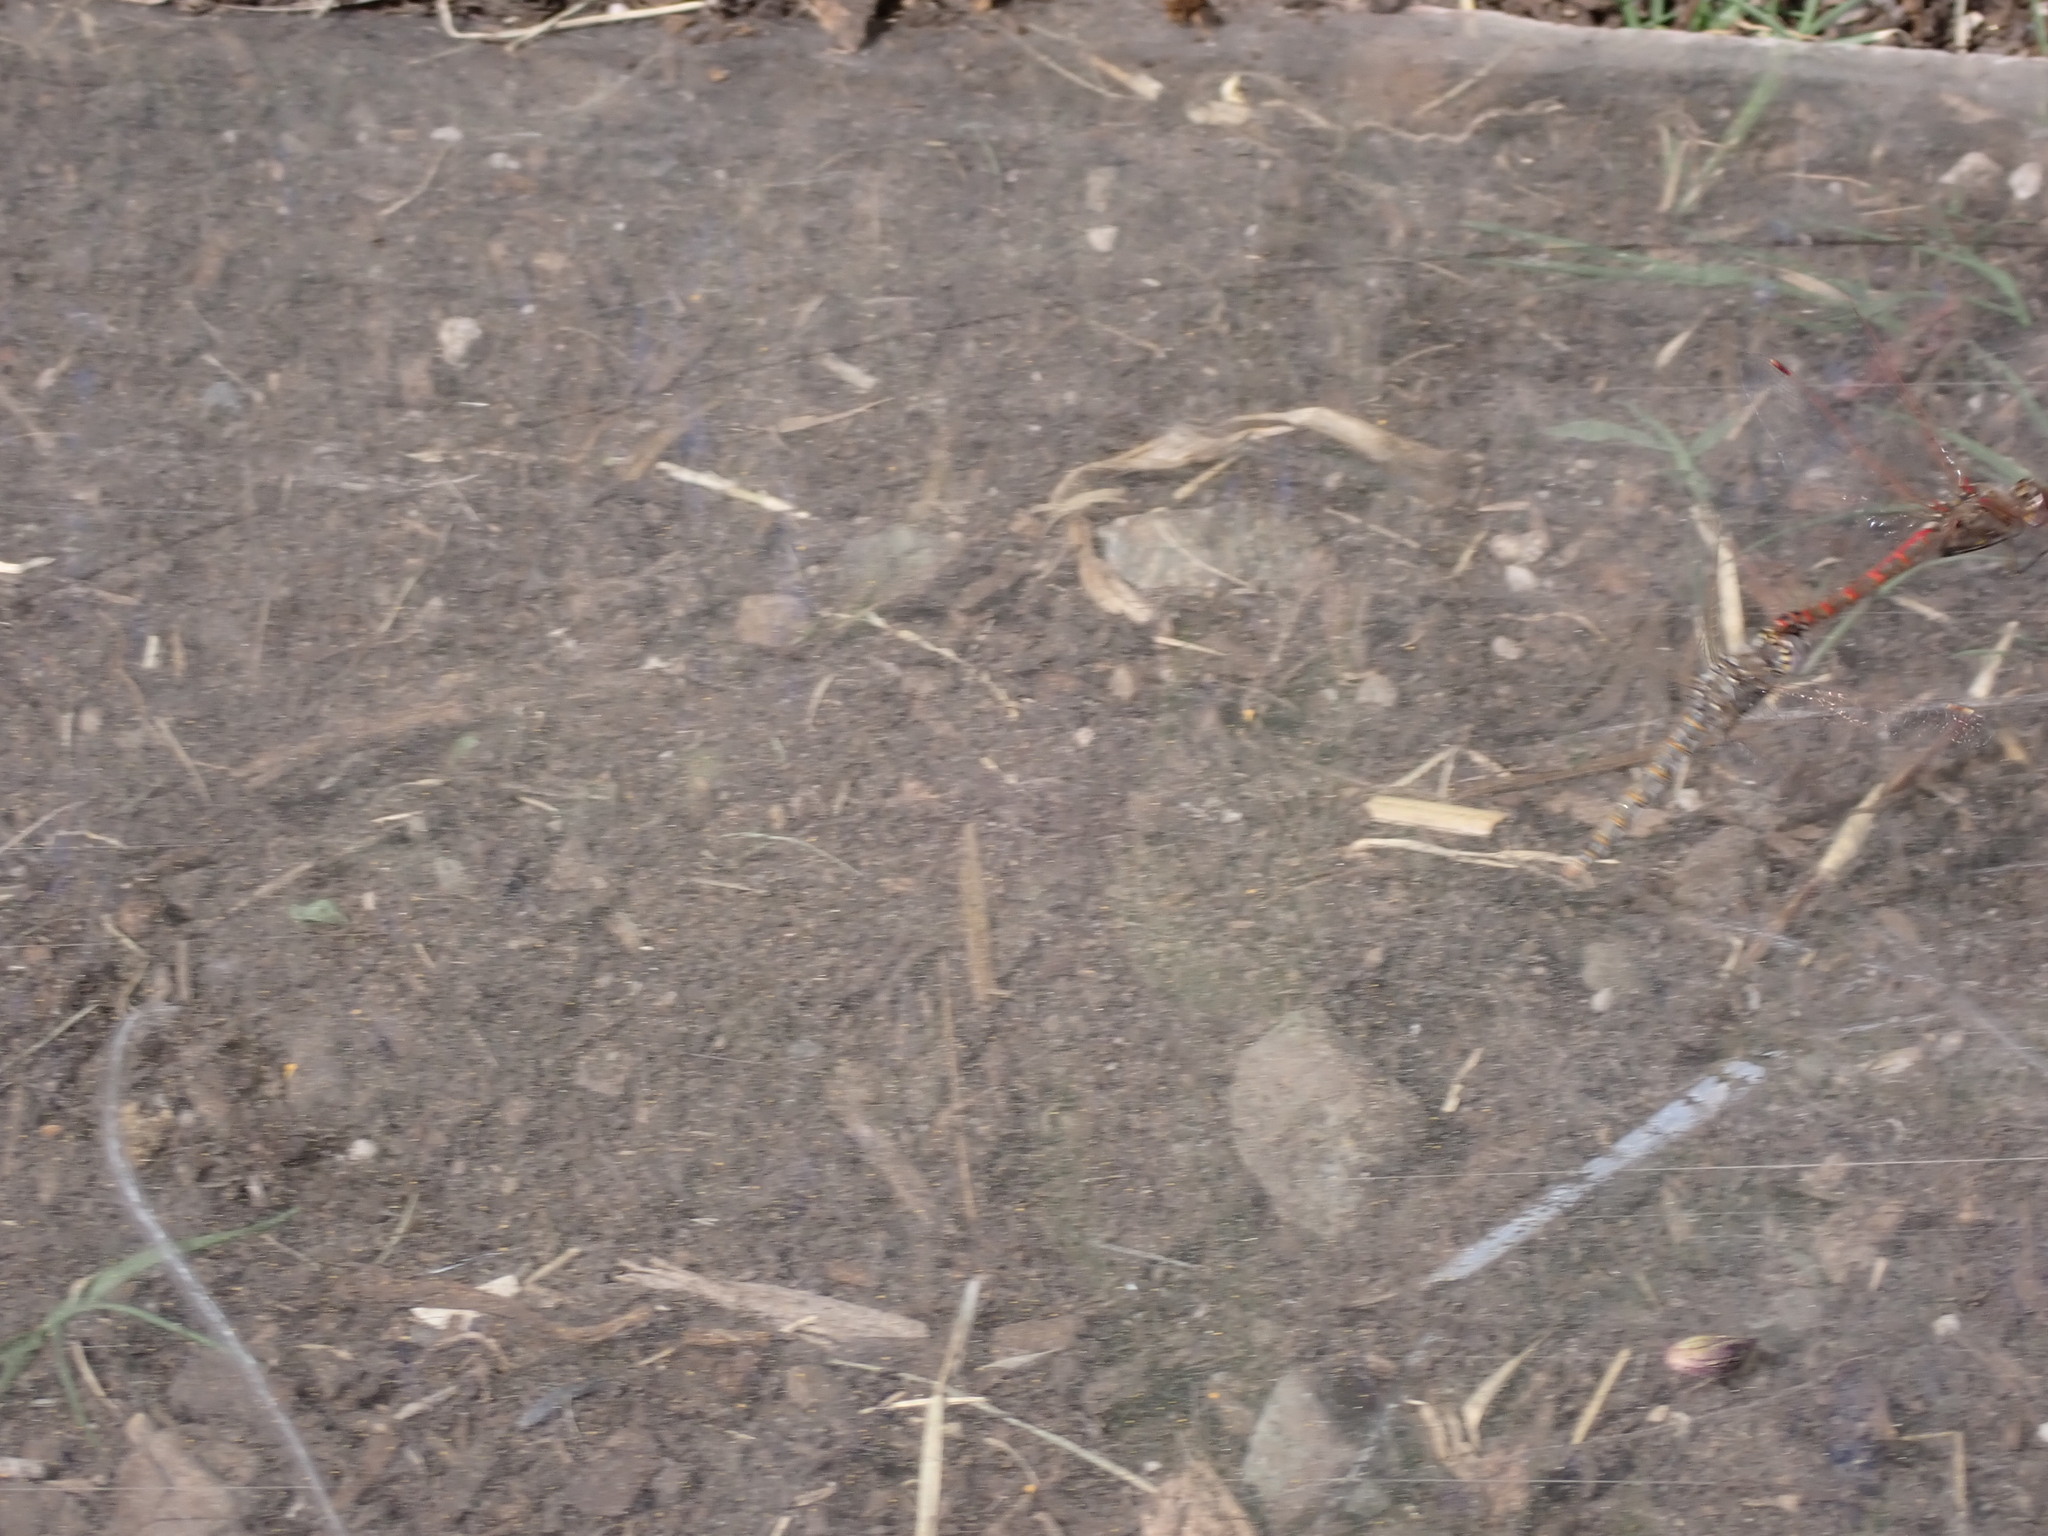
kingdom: Animalia
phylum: Arthropoda
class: Insecta
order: Odonata
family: Libellulidae
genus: Sympetrum
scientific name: Sympetrum corruptum
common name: Variegated meadowhawk
